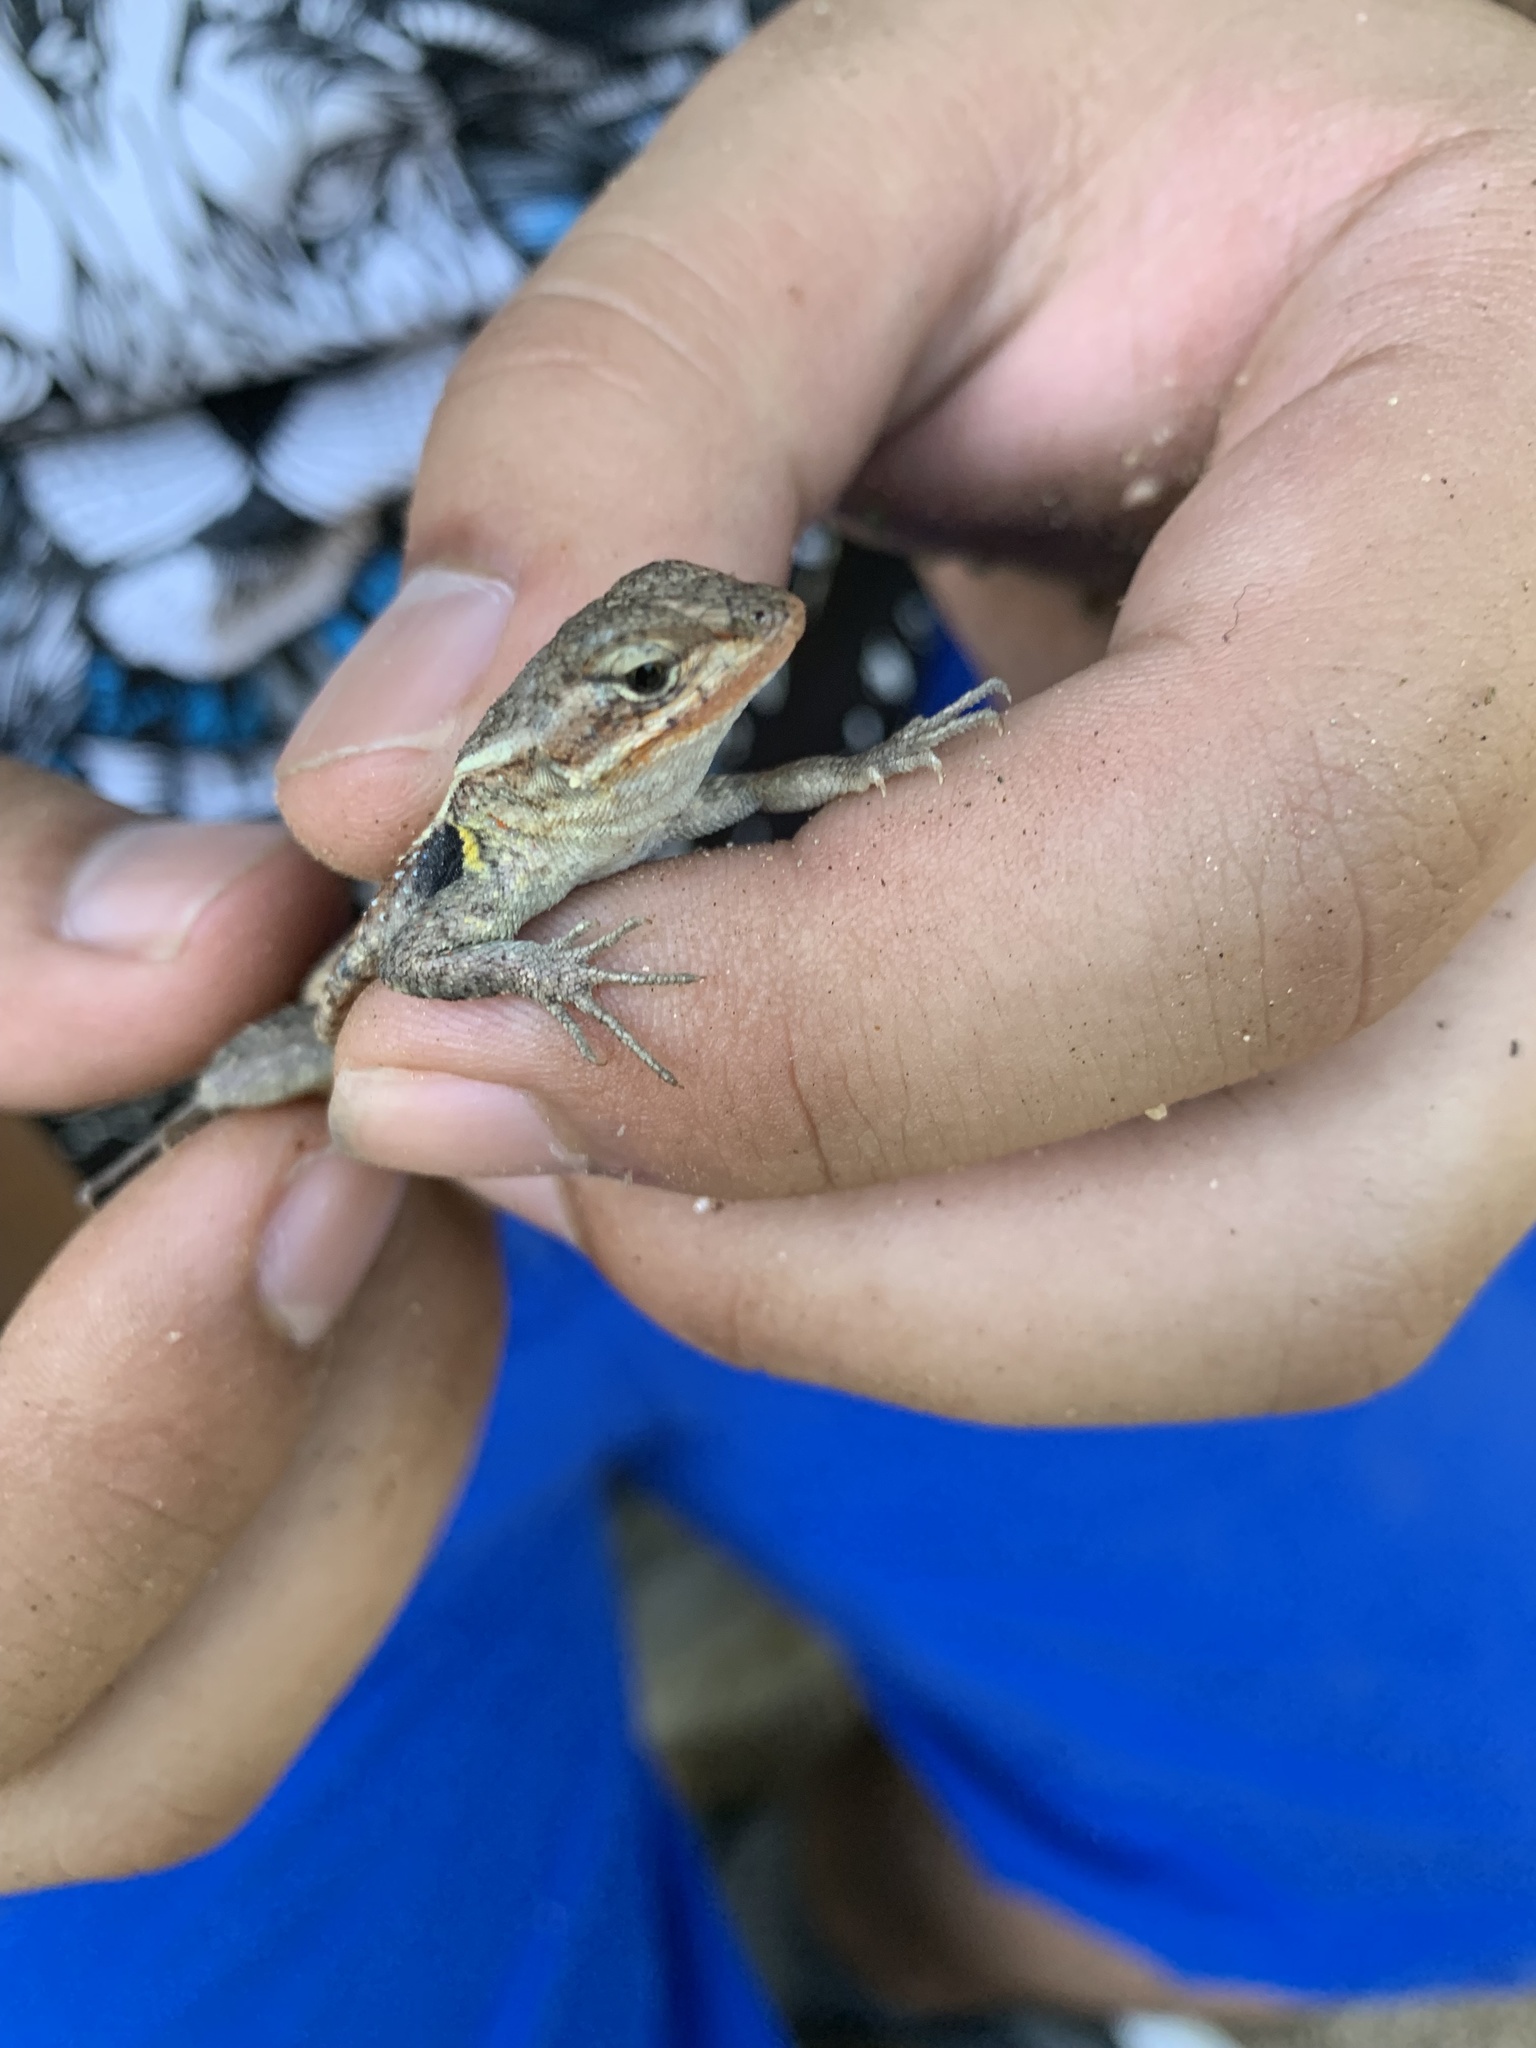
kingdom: Animalia
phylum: Chordata
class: Squamata
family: Phrynosomatidae
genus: Sceloporus
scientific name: Sceloporus variabilis
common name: Rosebelly lizard
